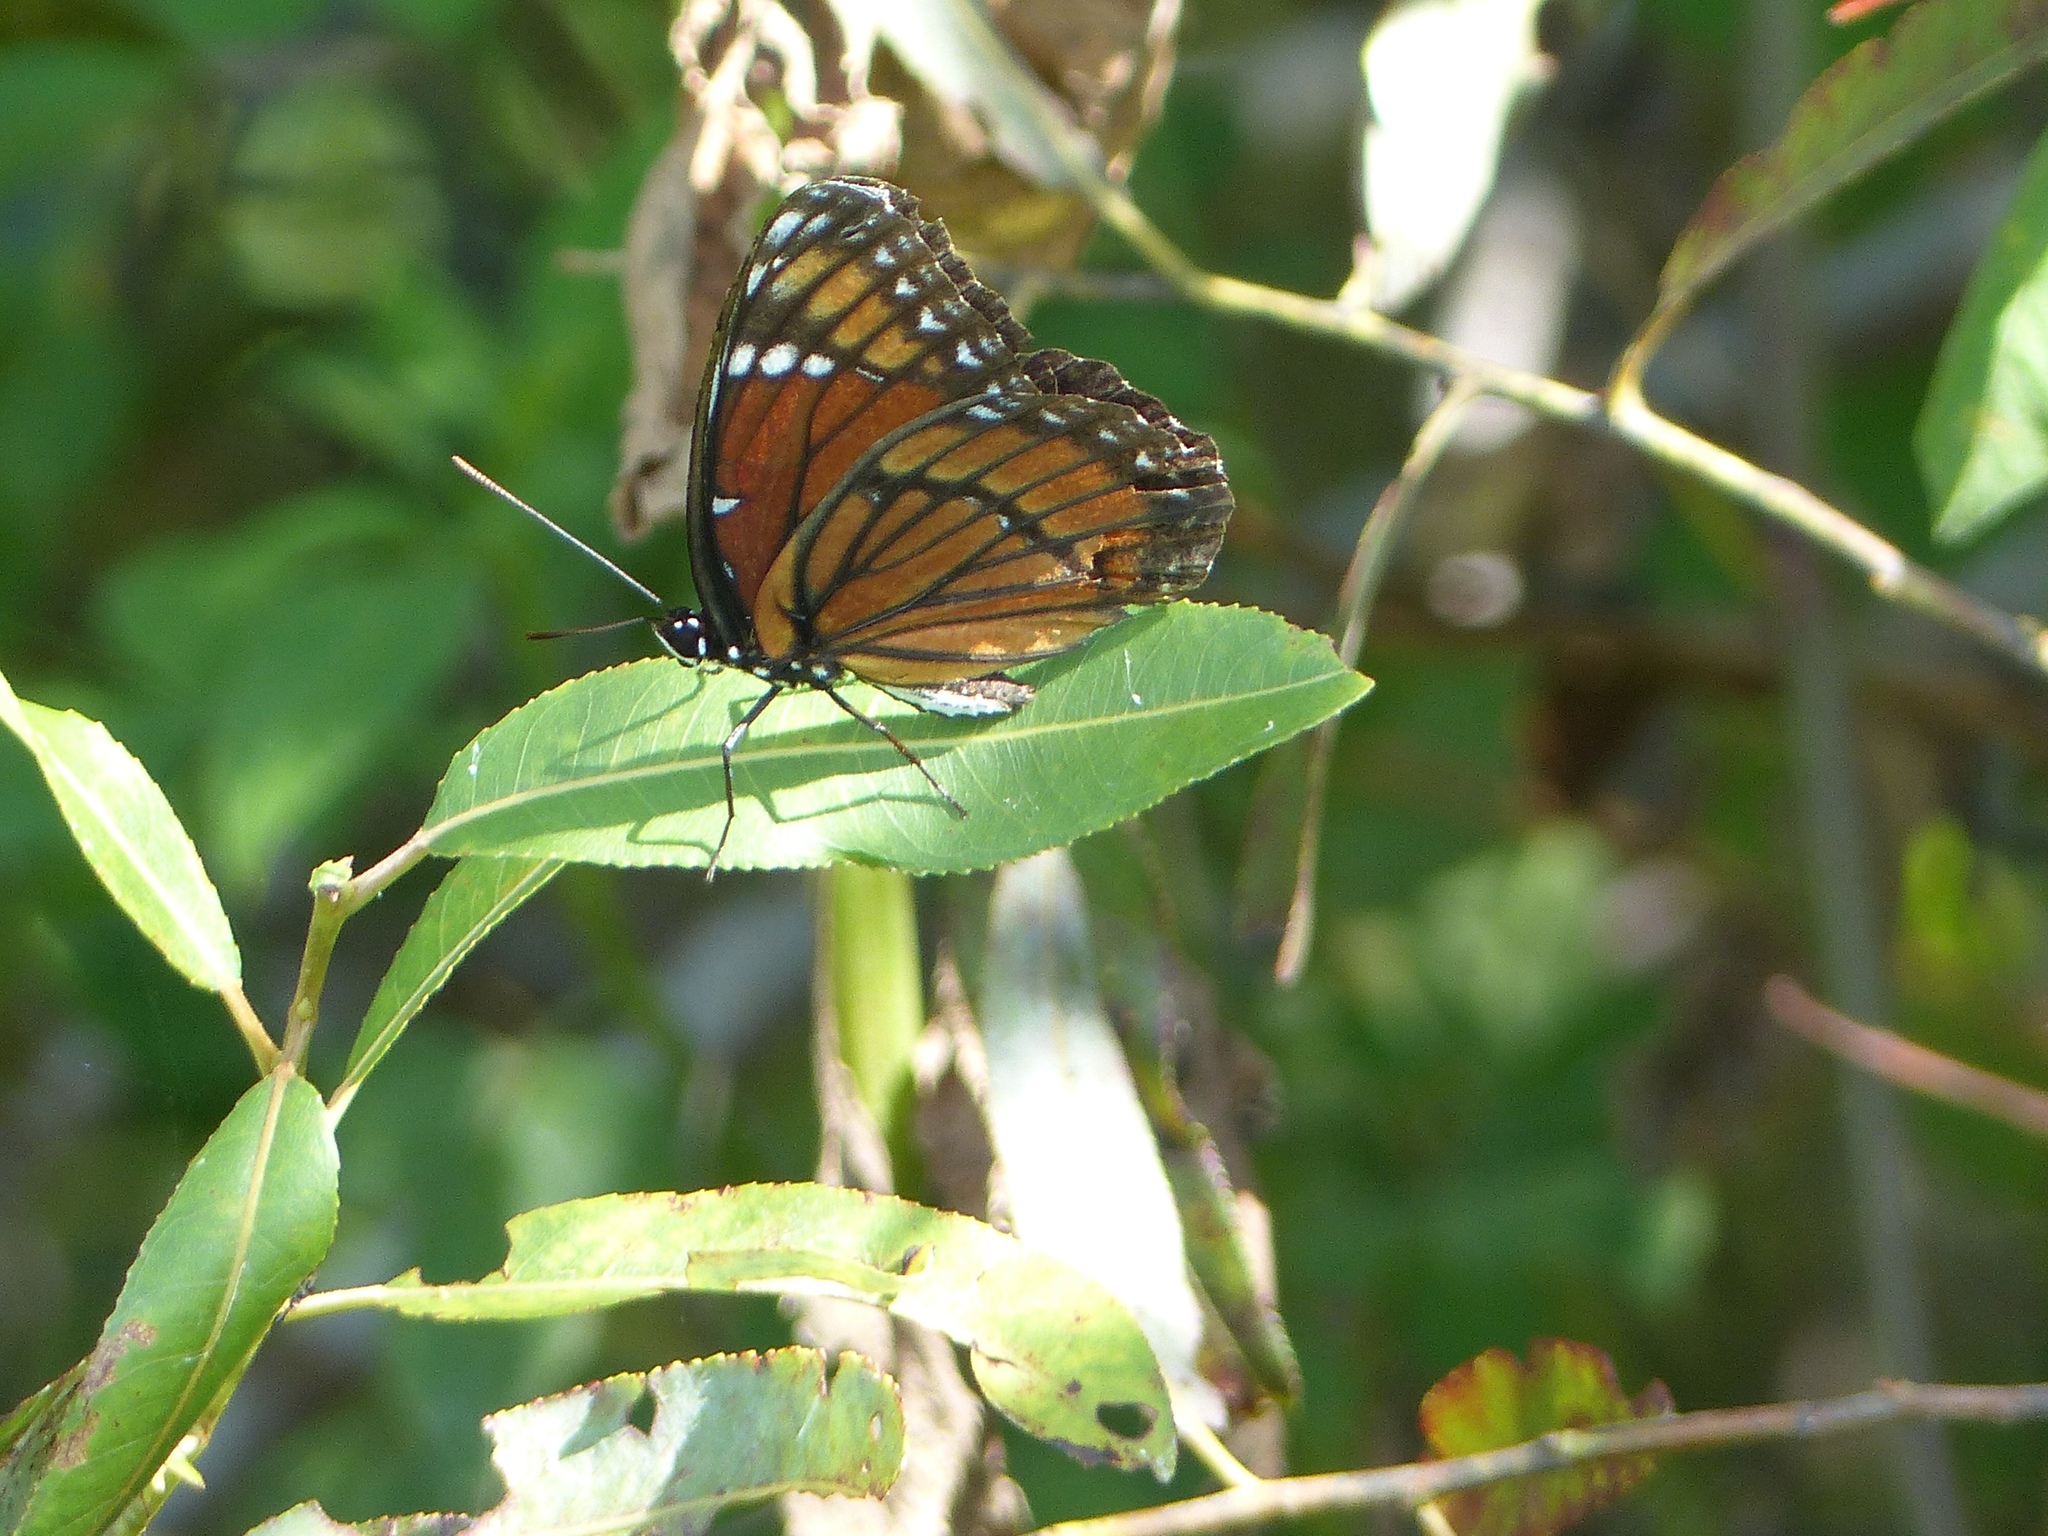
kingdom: Animalia
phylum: Arthropoda
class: Insecta
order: Lepidoptera
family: Nymphalidae
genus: Limenitis
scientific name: Limenitis archippus
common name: Viceroy
